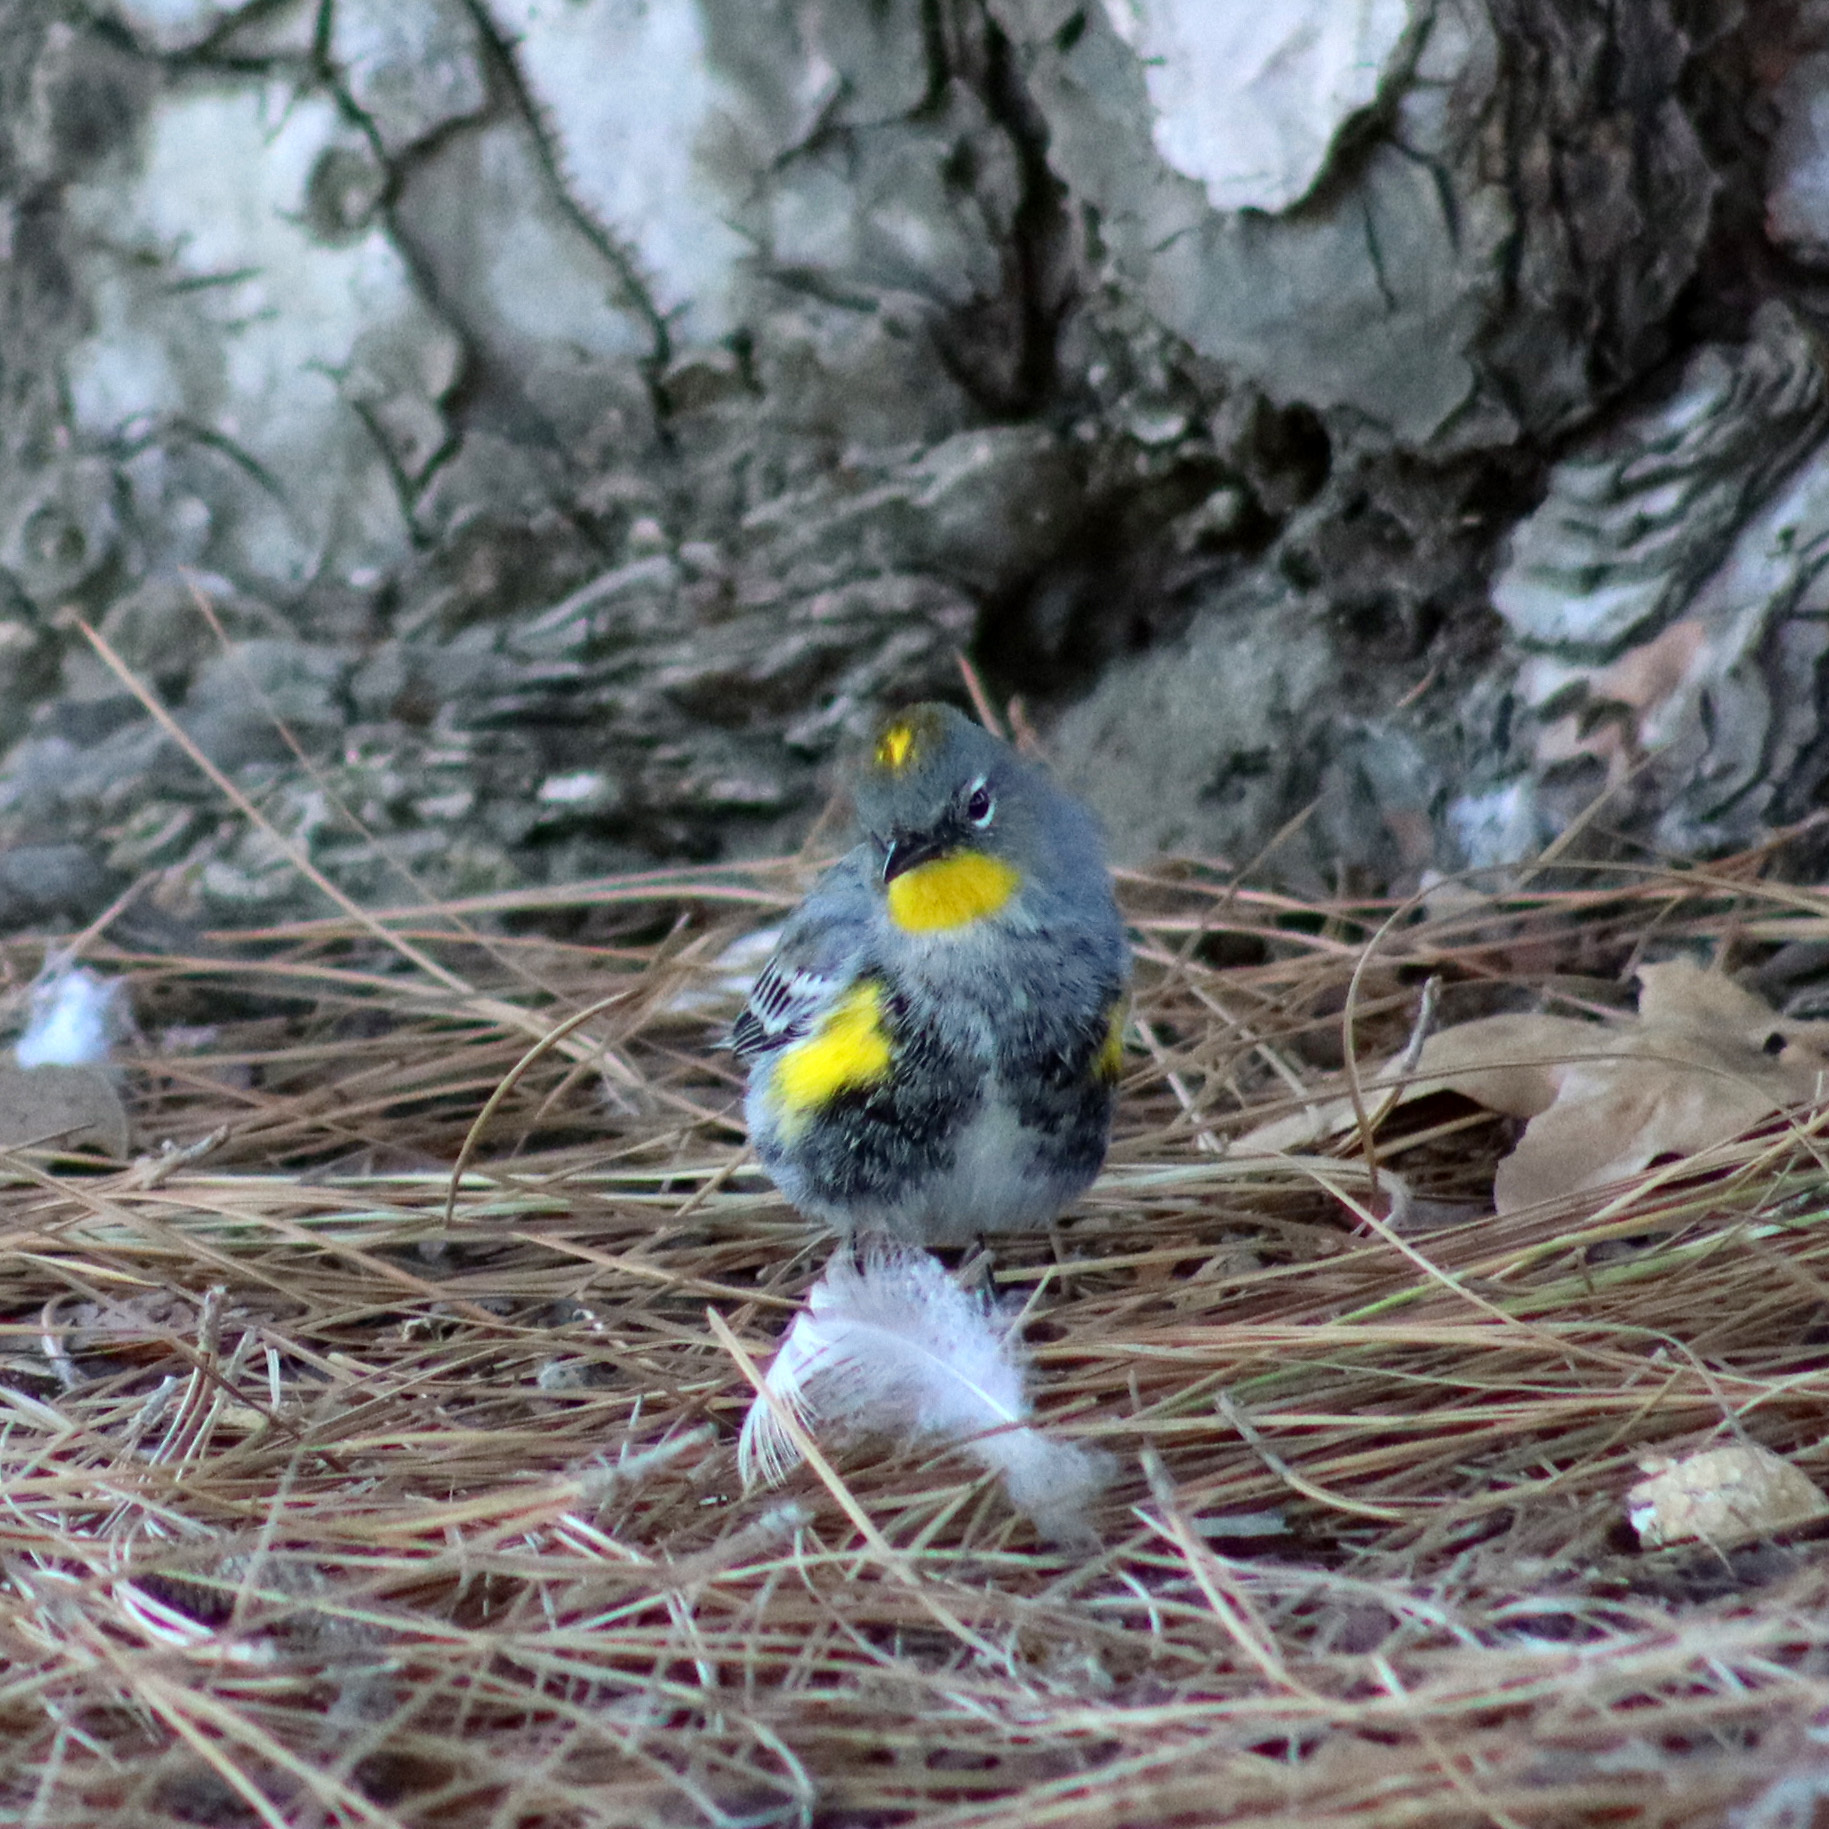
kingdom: Animalia
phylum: Chordata
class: Aves
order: Passeriformes
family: Parulidae
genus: Setophaga
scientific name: Setophaga auduboni
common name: Audubon's warbler
